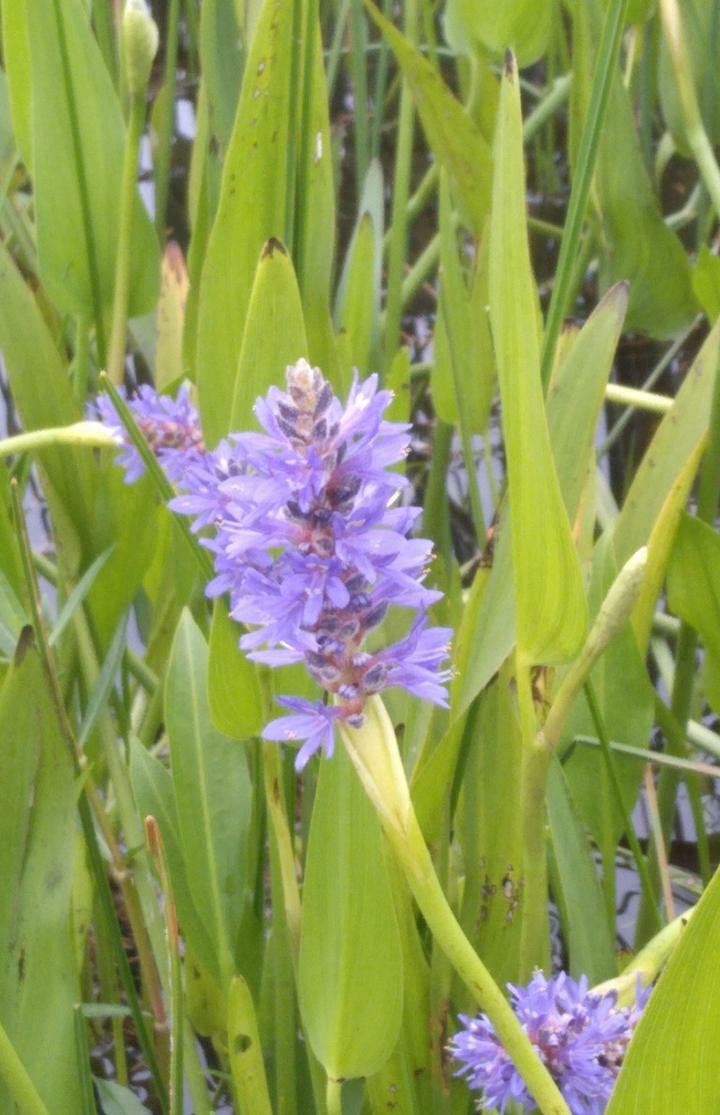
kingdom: Plantae
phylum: Tracheophyta
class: Liliopsida
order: Commelinales
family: Pontederiaceae
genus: Pontederia
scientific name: Pontederia cordata
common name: Pickerelweed
